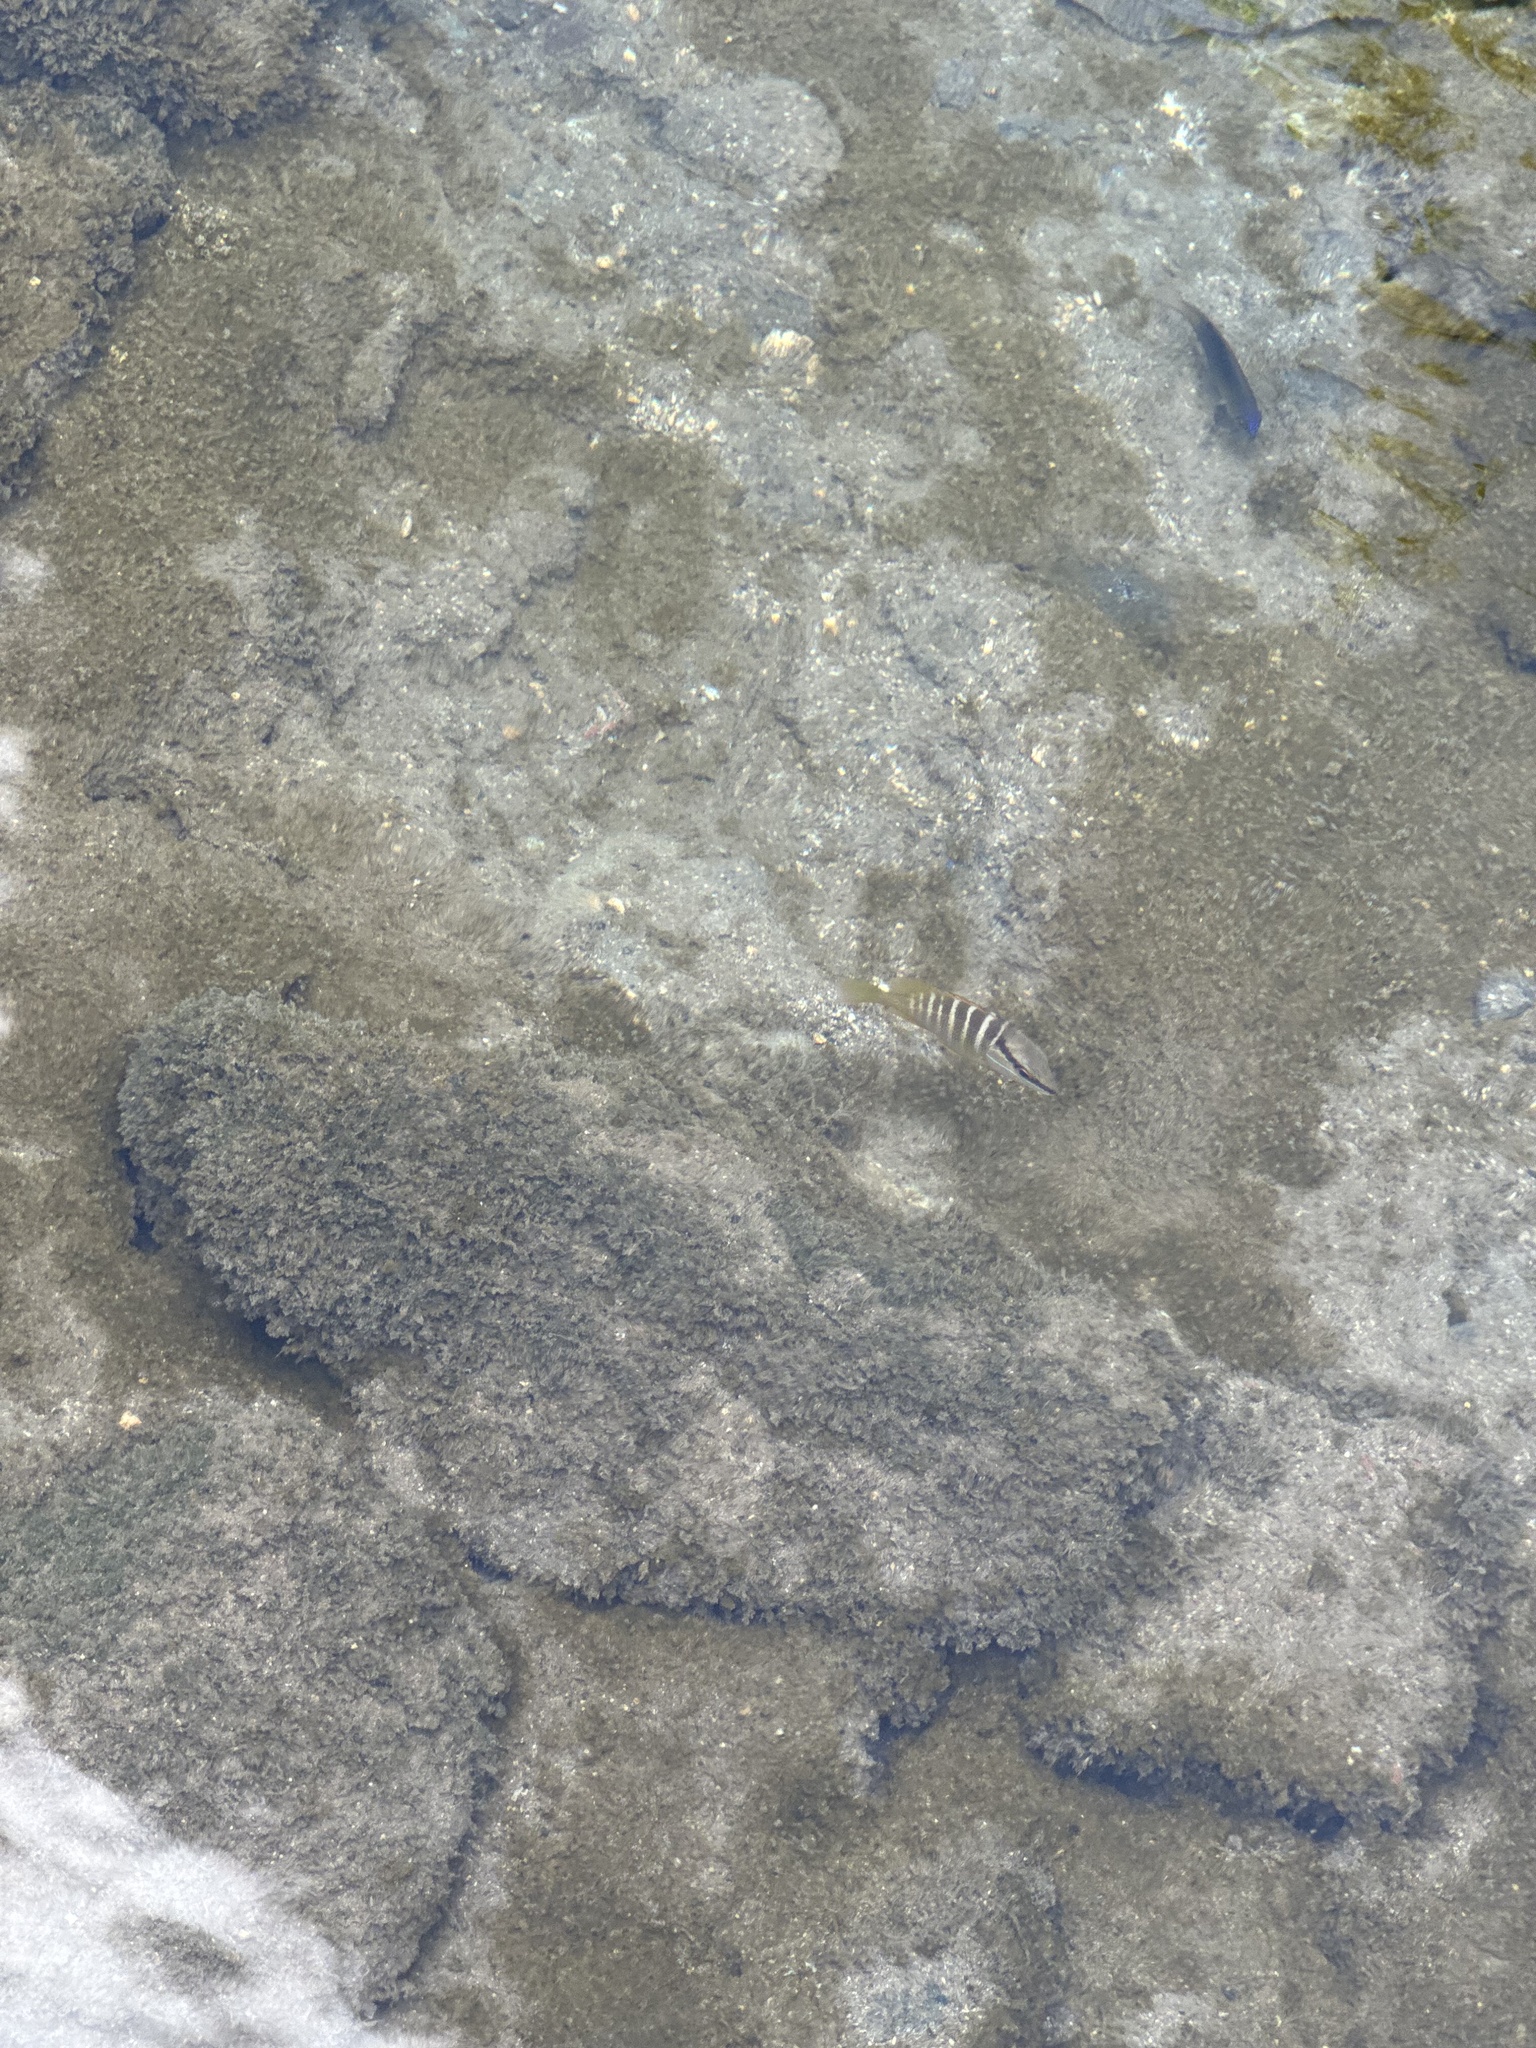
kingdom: Animalia
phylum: Chordata
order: Perciformes
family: Lutjanidae
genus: Lutjanus
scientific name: Lutjanus apodus
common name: Schoolmaster
